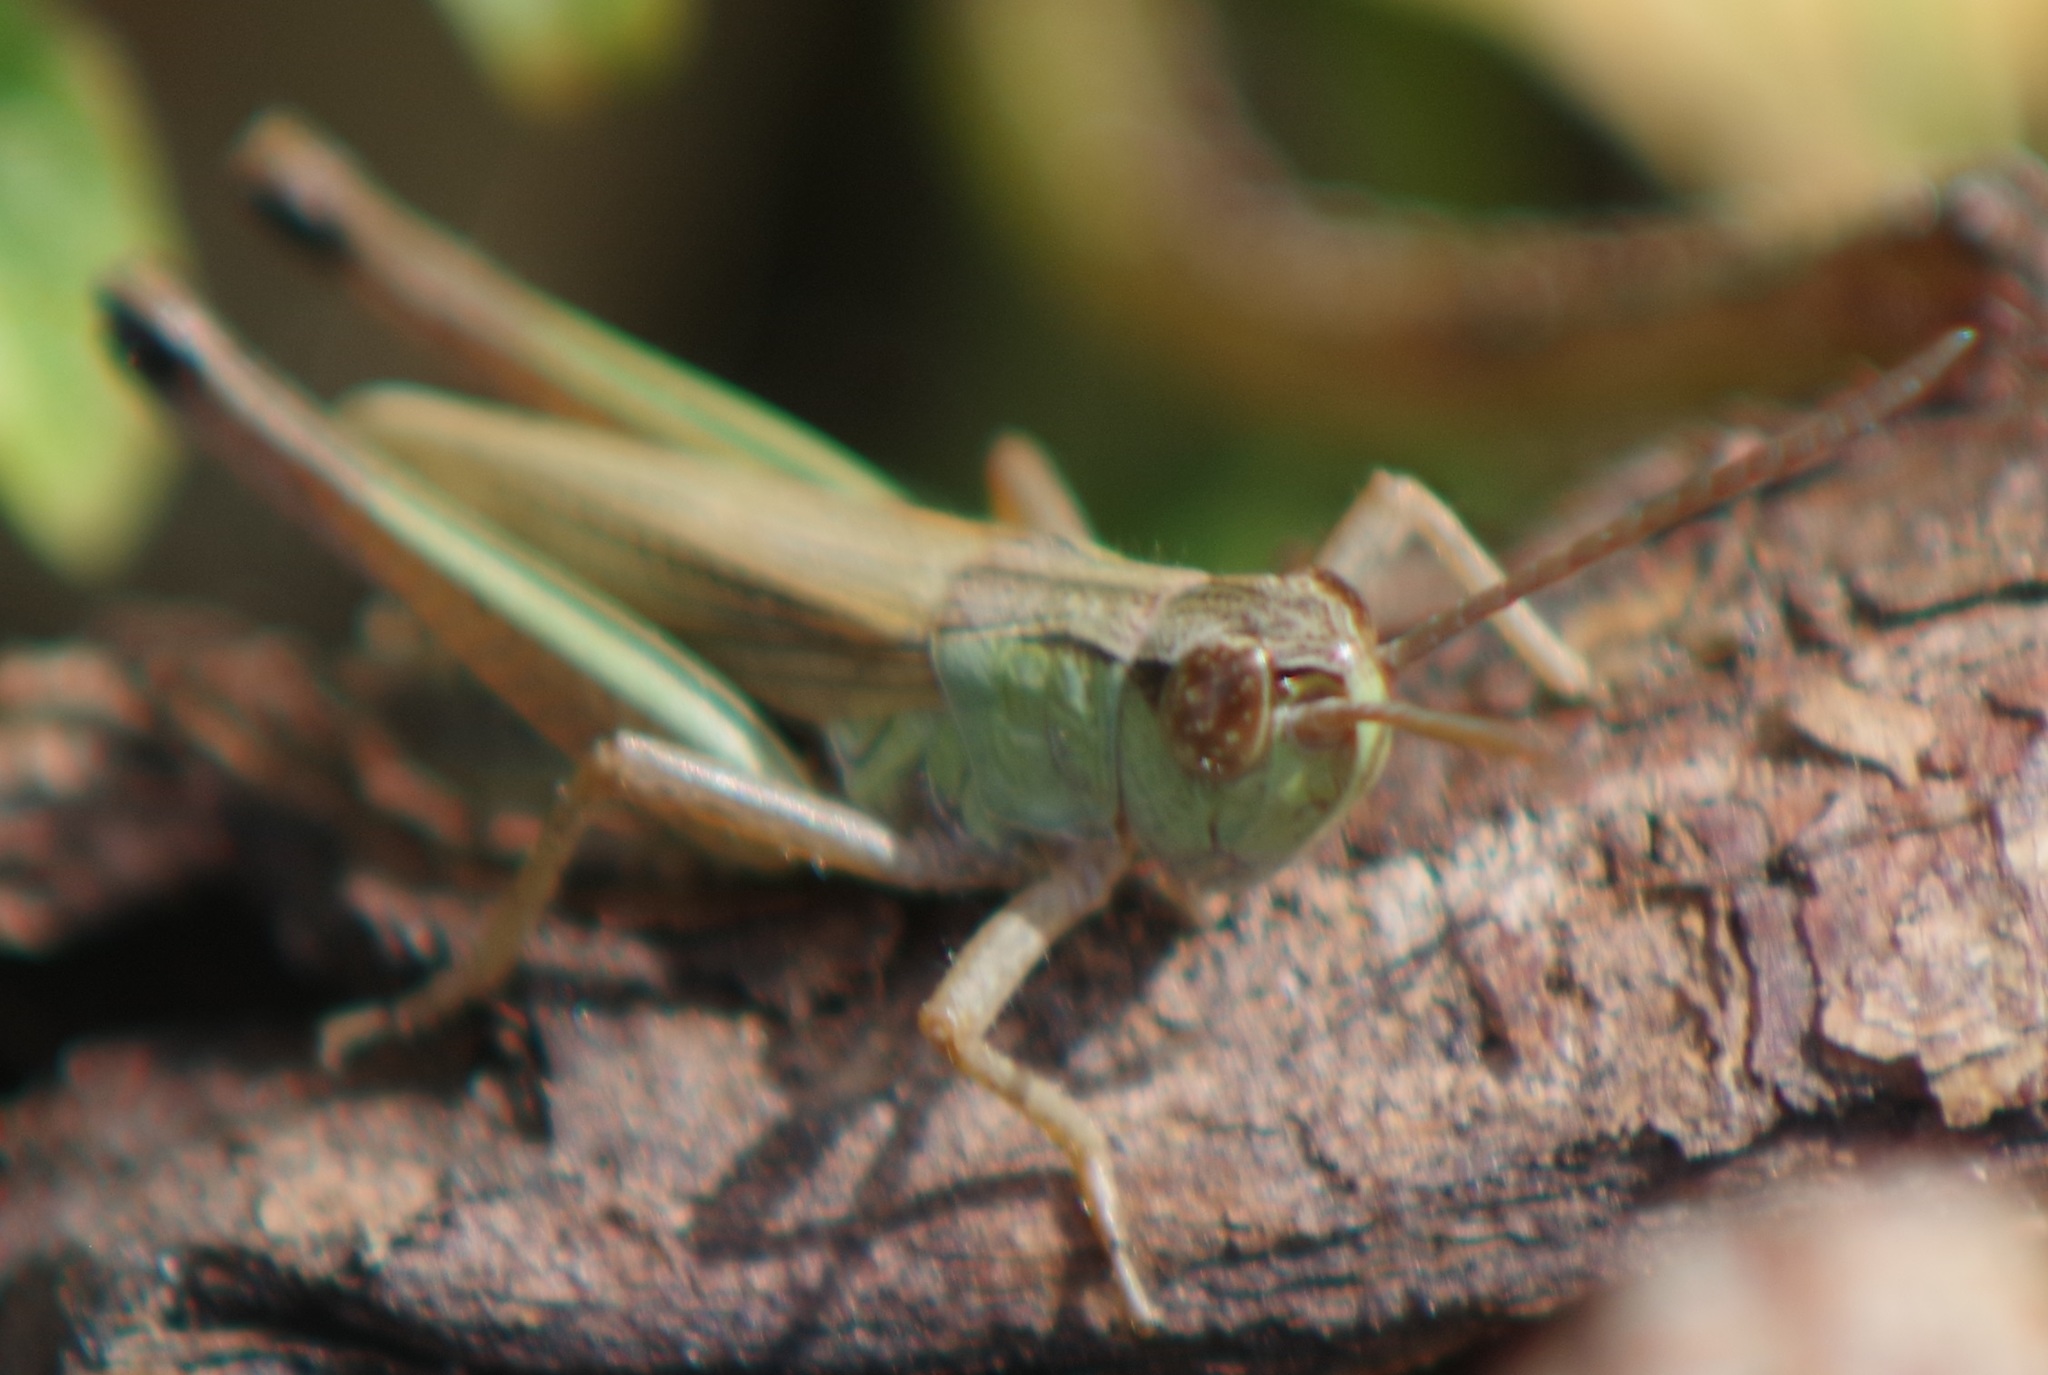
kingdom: Animalia
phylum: Arthropoda
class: Insecta
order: Orthoptera
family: Acrididae
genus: Pseudochorthippus
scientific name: Pseudochorthippus parallelus
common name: Meadow grasshopper
